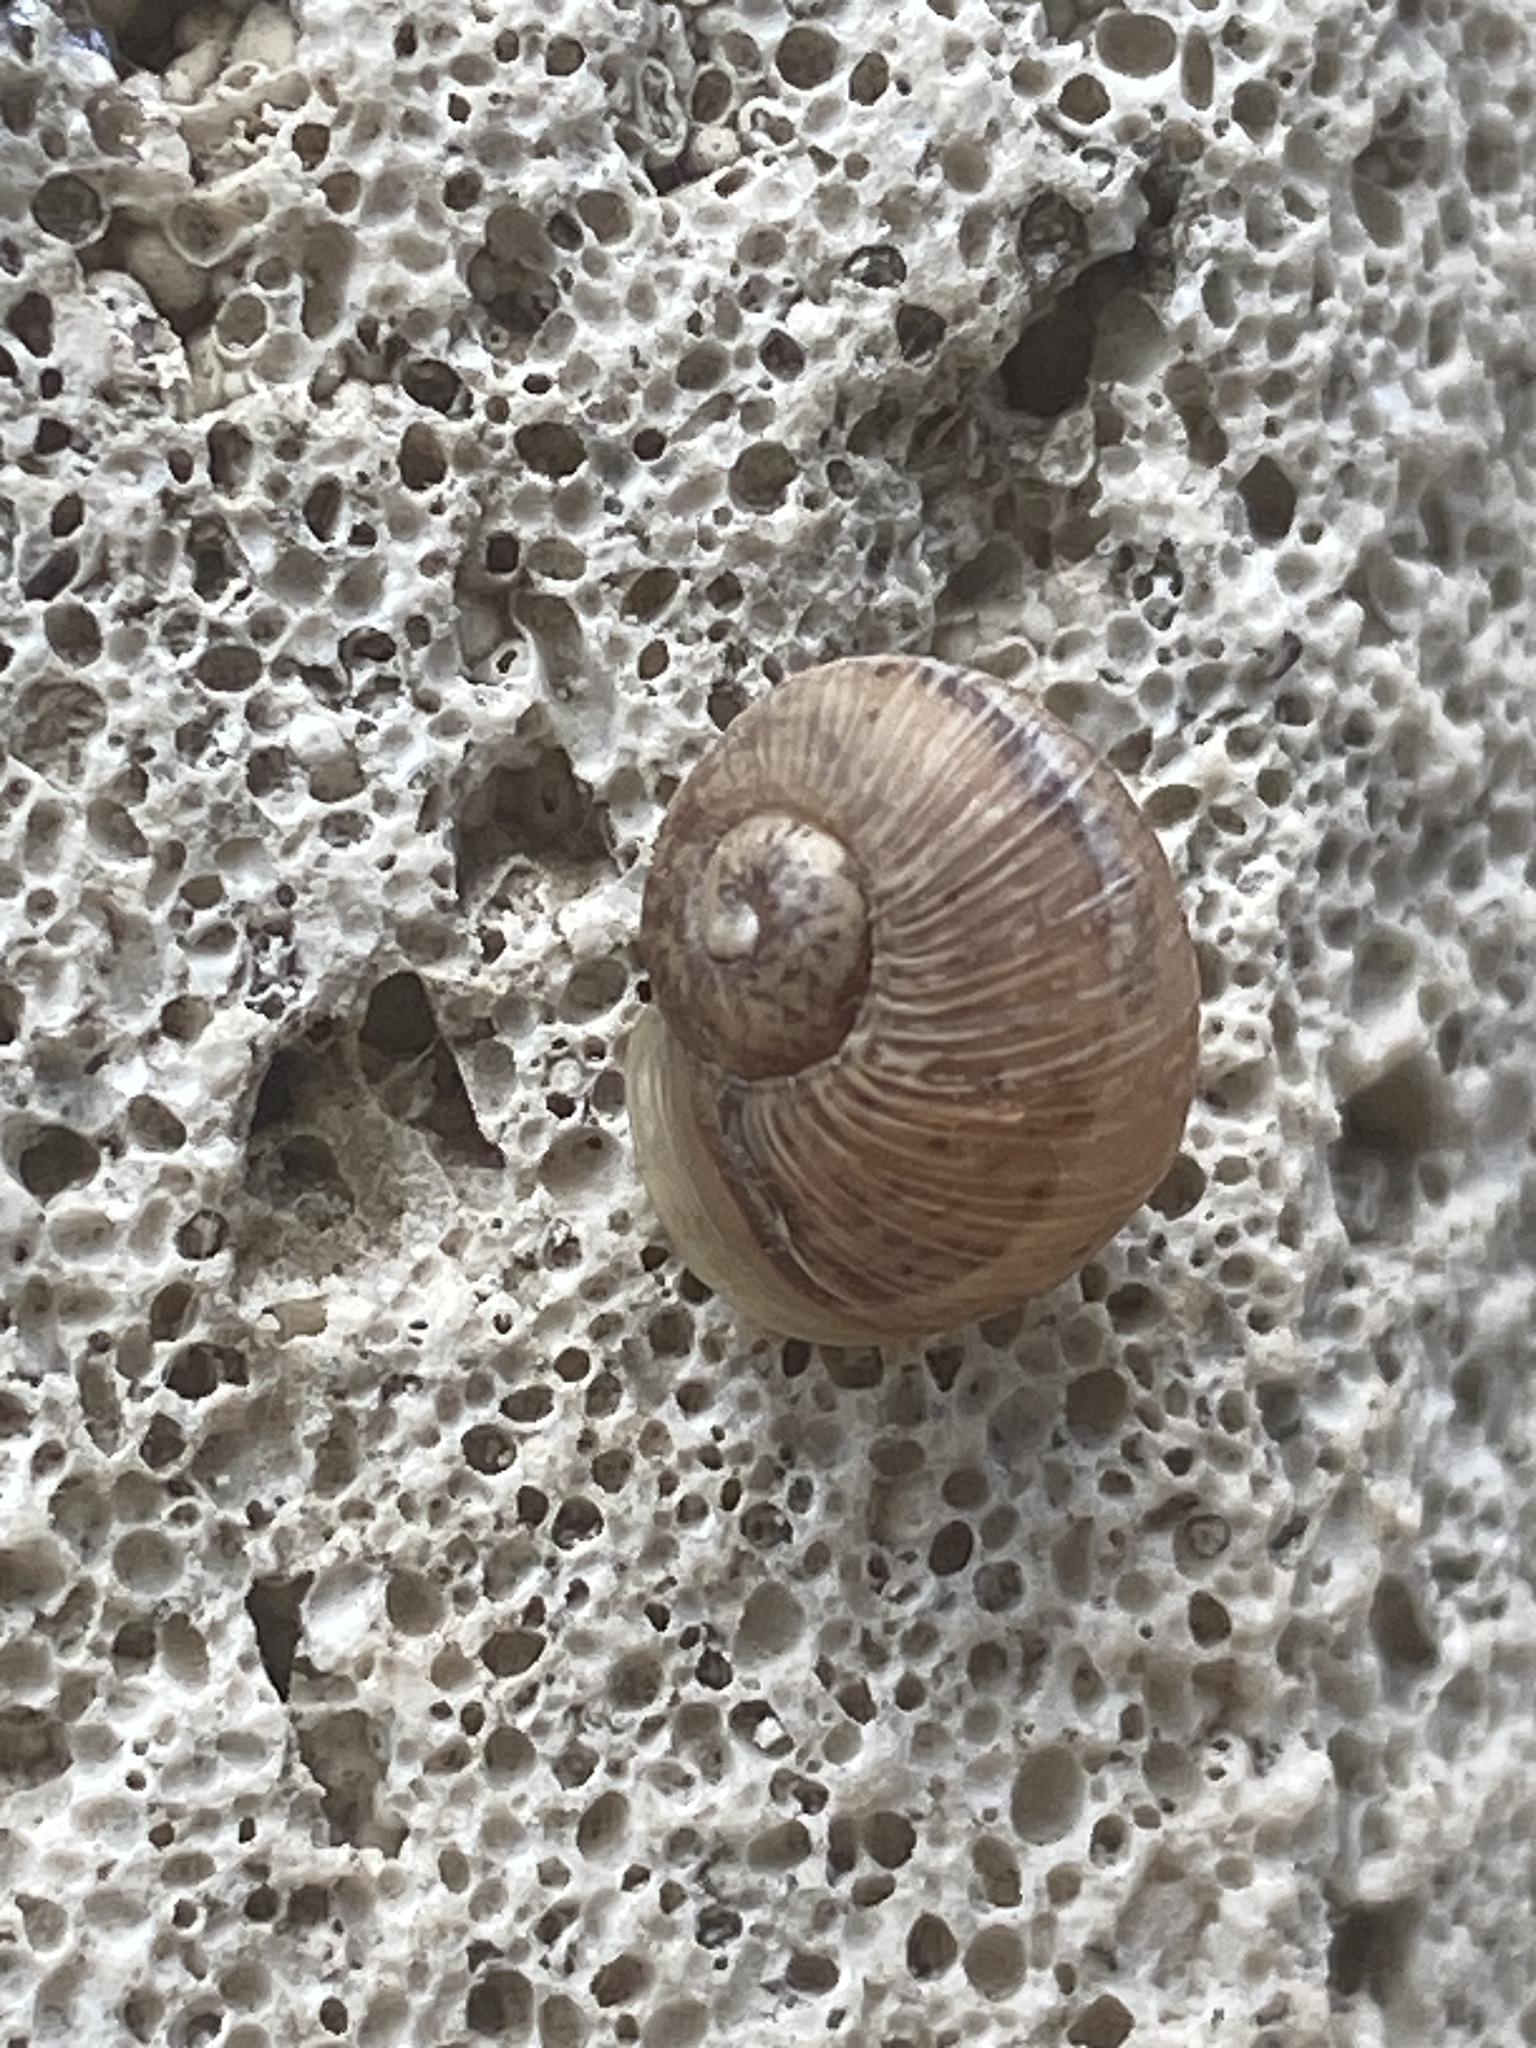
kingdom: Animalia
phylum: Mollusca
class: Gastropoda
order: Stylommatophora
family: Helicidae
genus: Cornu
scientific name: Cornu aspersum
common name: Brown garden snail
